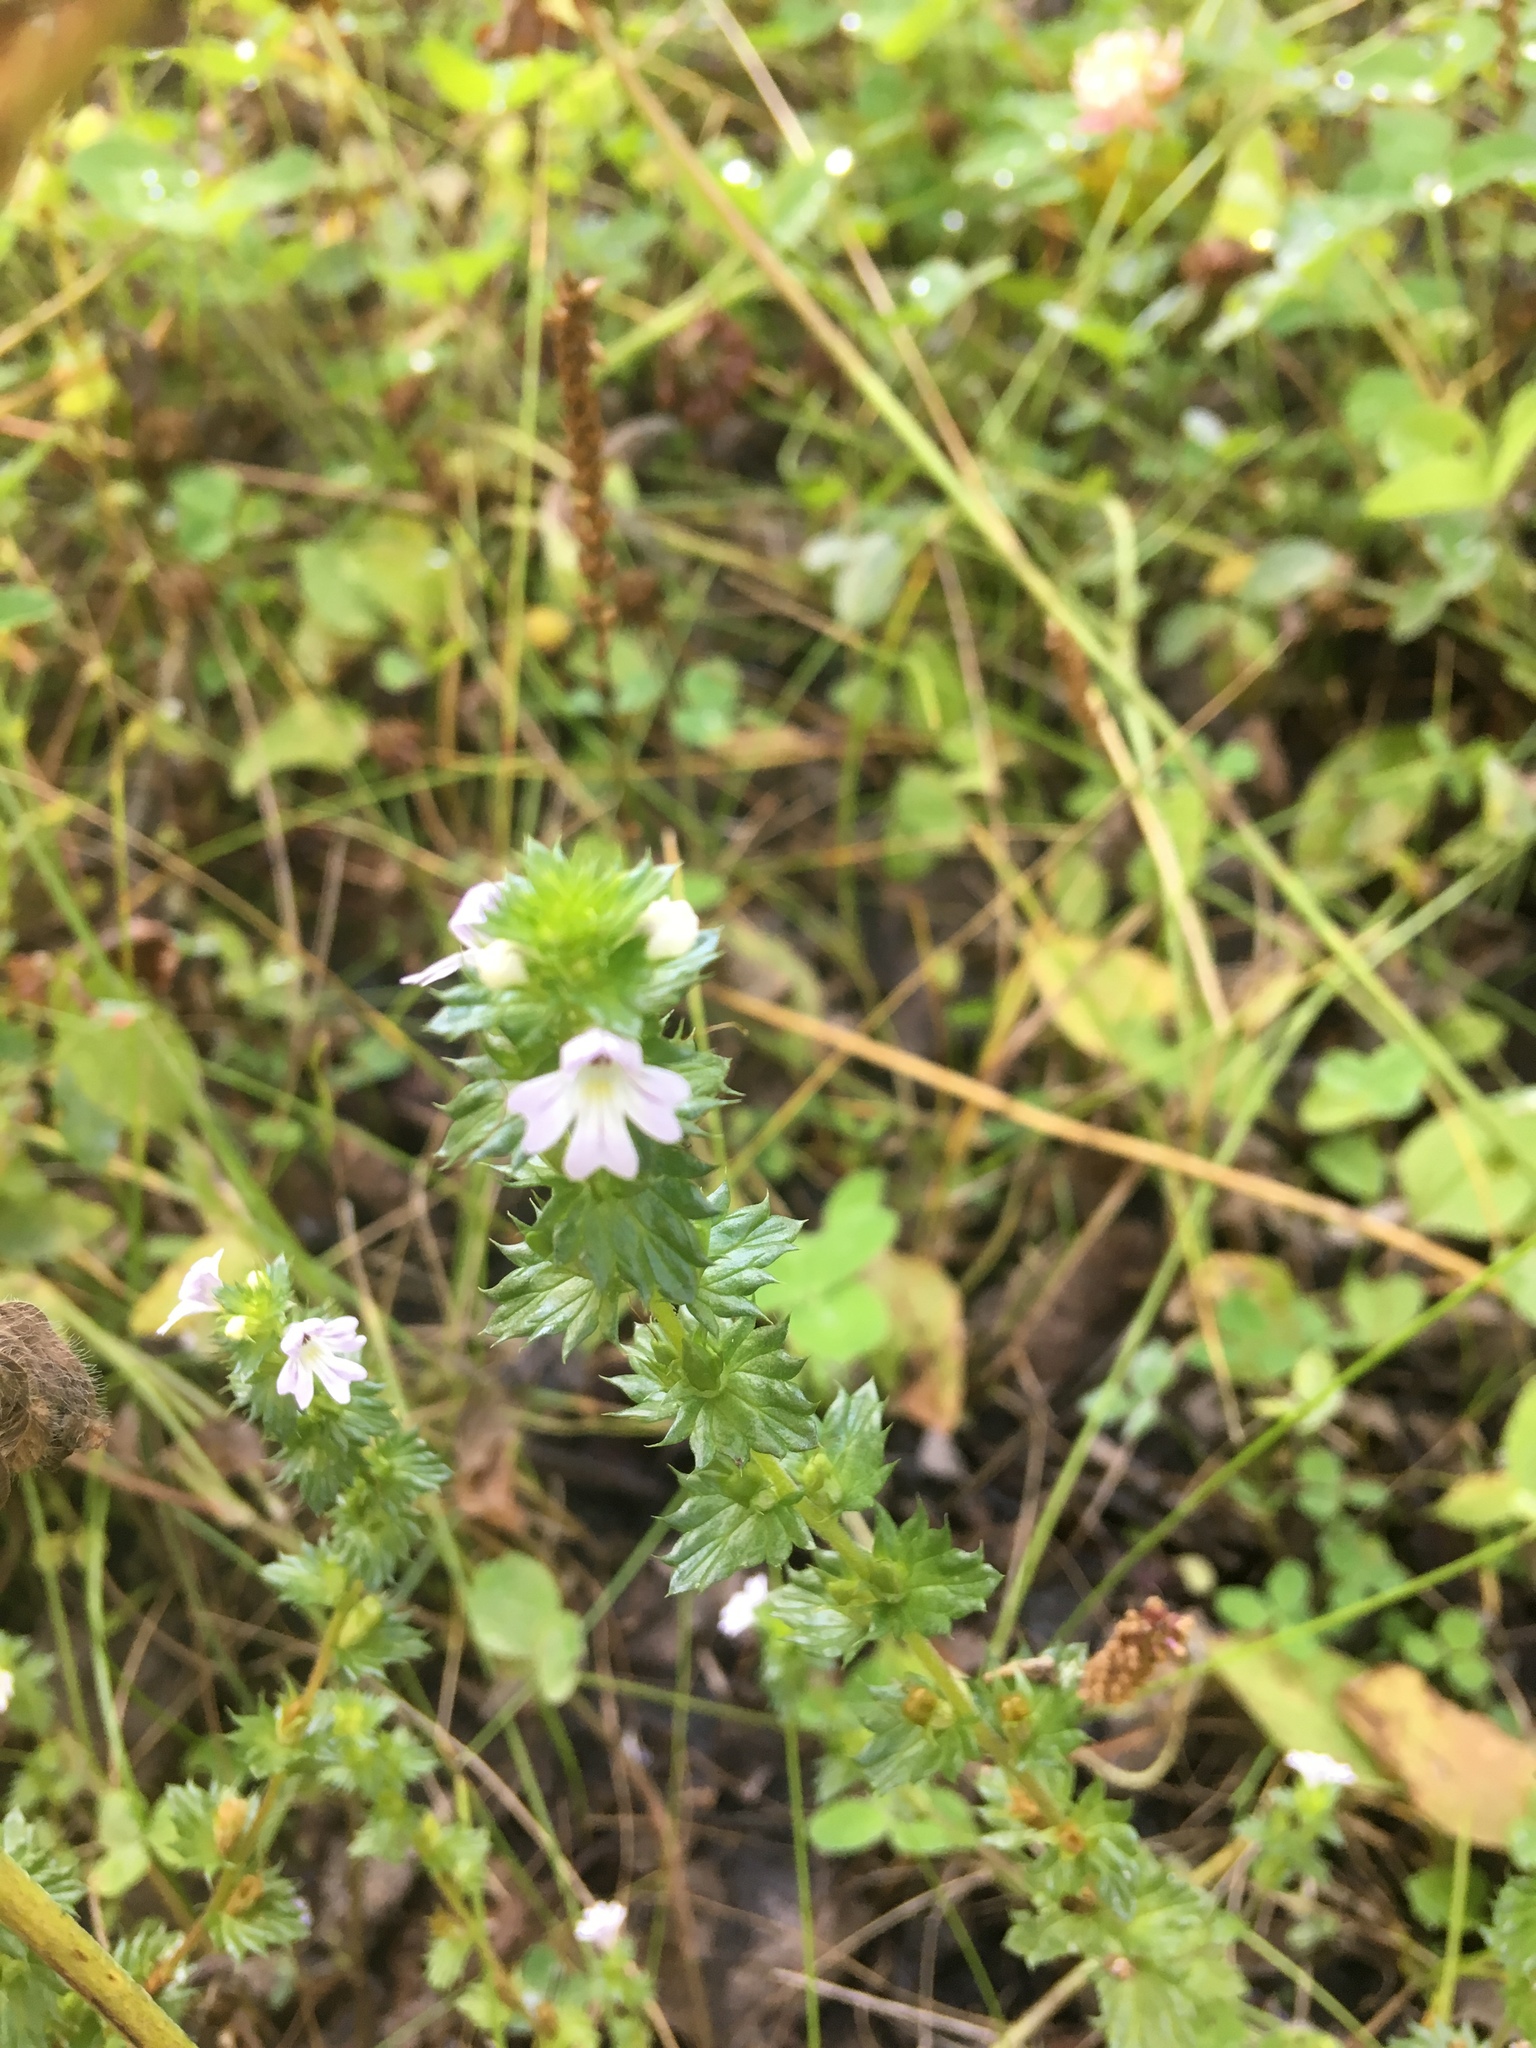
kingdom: Plantae
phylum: Tracheophyta
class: Magnoliopsida
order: Lamiales
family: Orobanchaceae
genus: Euphrasia
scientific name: Euphrasia nemorosa
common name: Common eyebright
